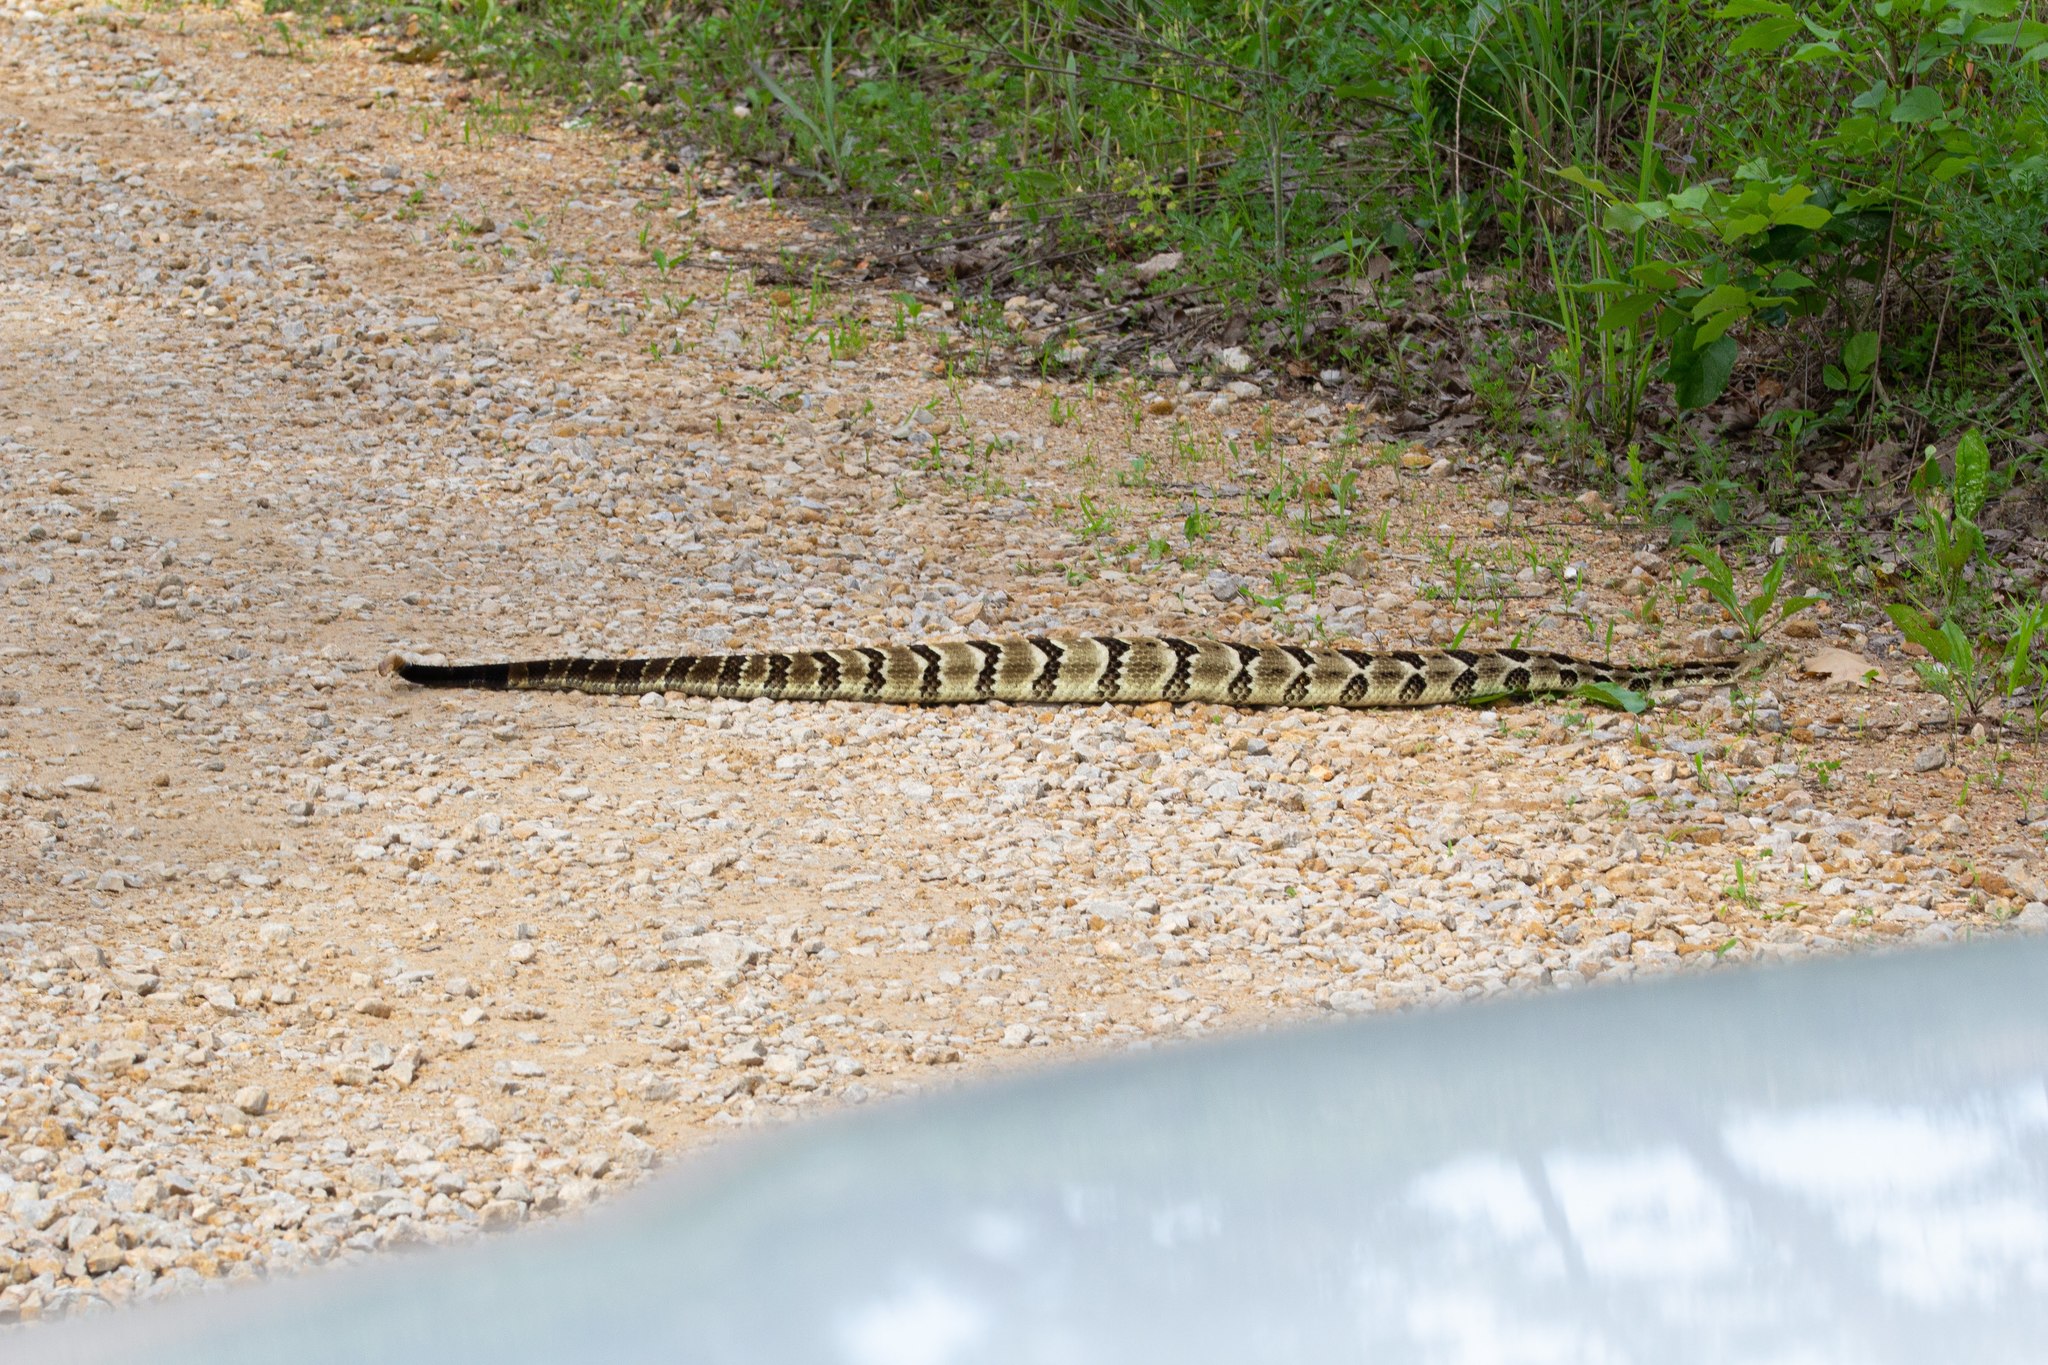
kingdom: Animalia
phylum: Chordata
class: Squamata
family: Viperidae
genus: Crotalus
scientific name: Crotalus horridus
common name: Timber rattlesnake
